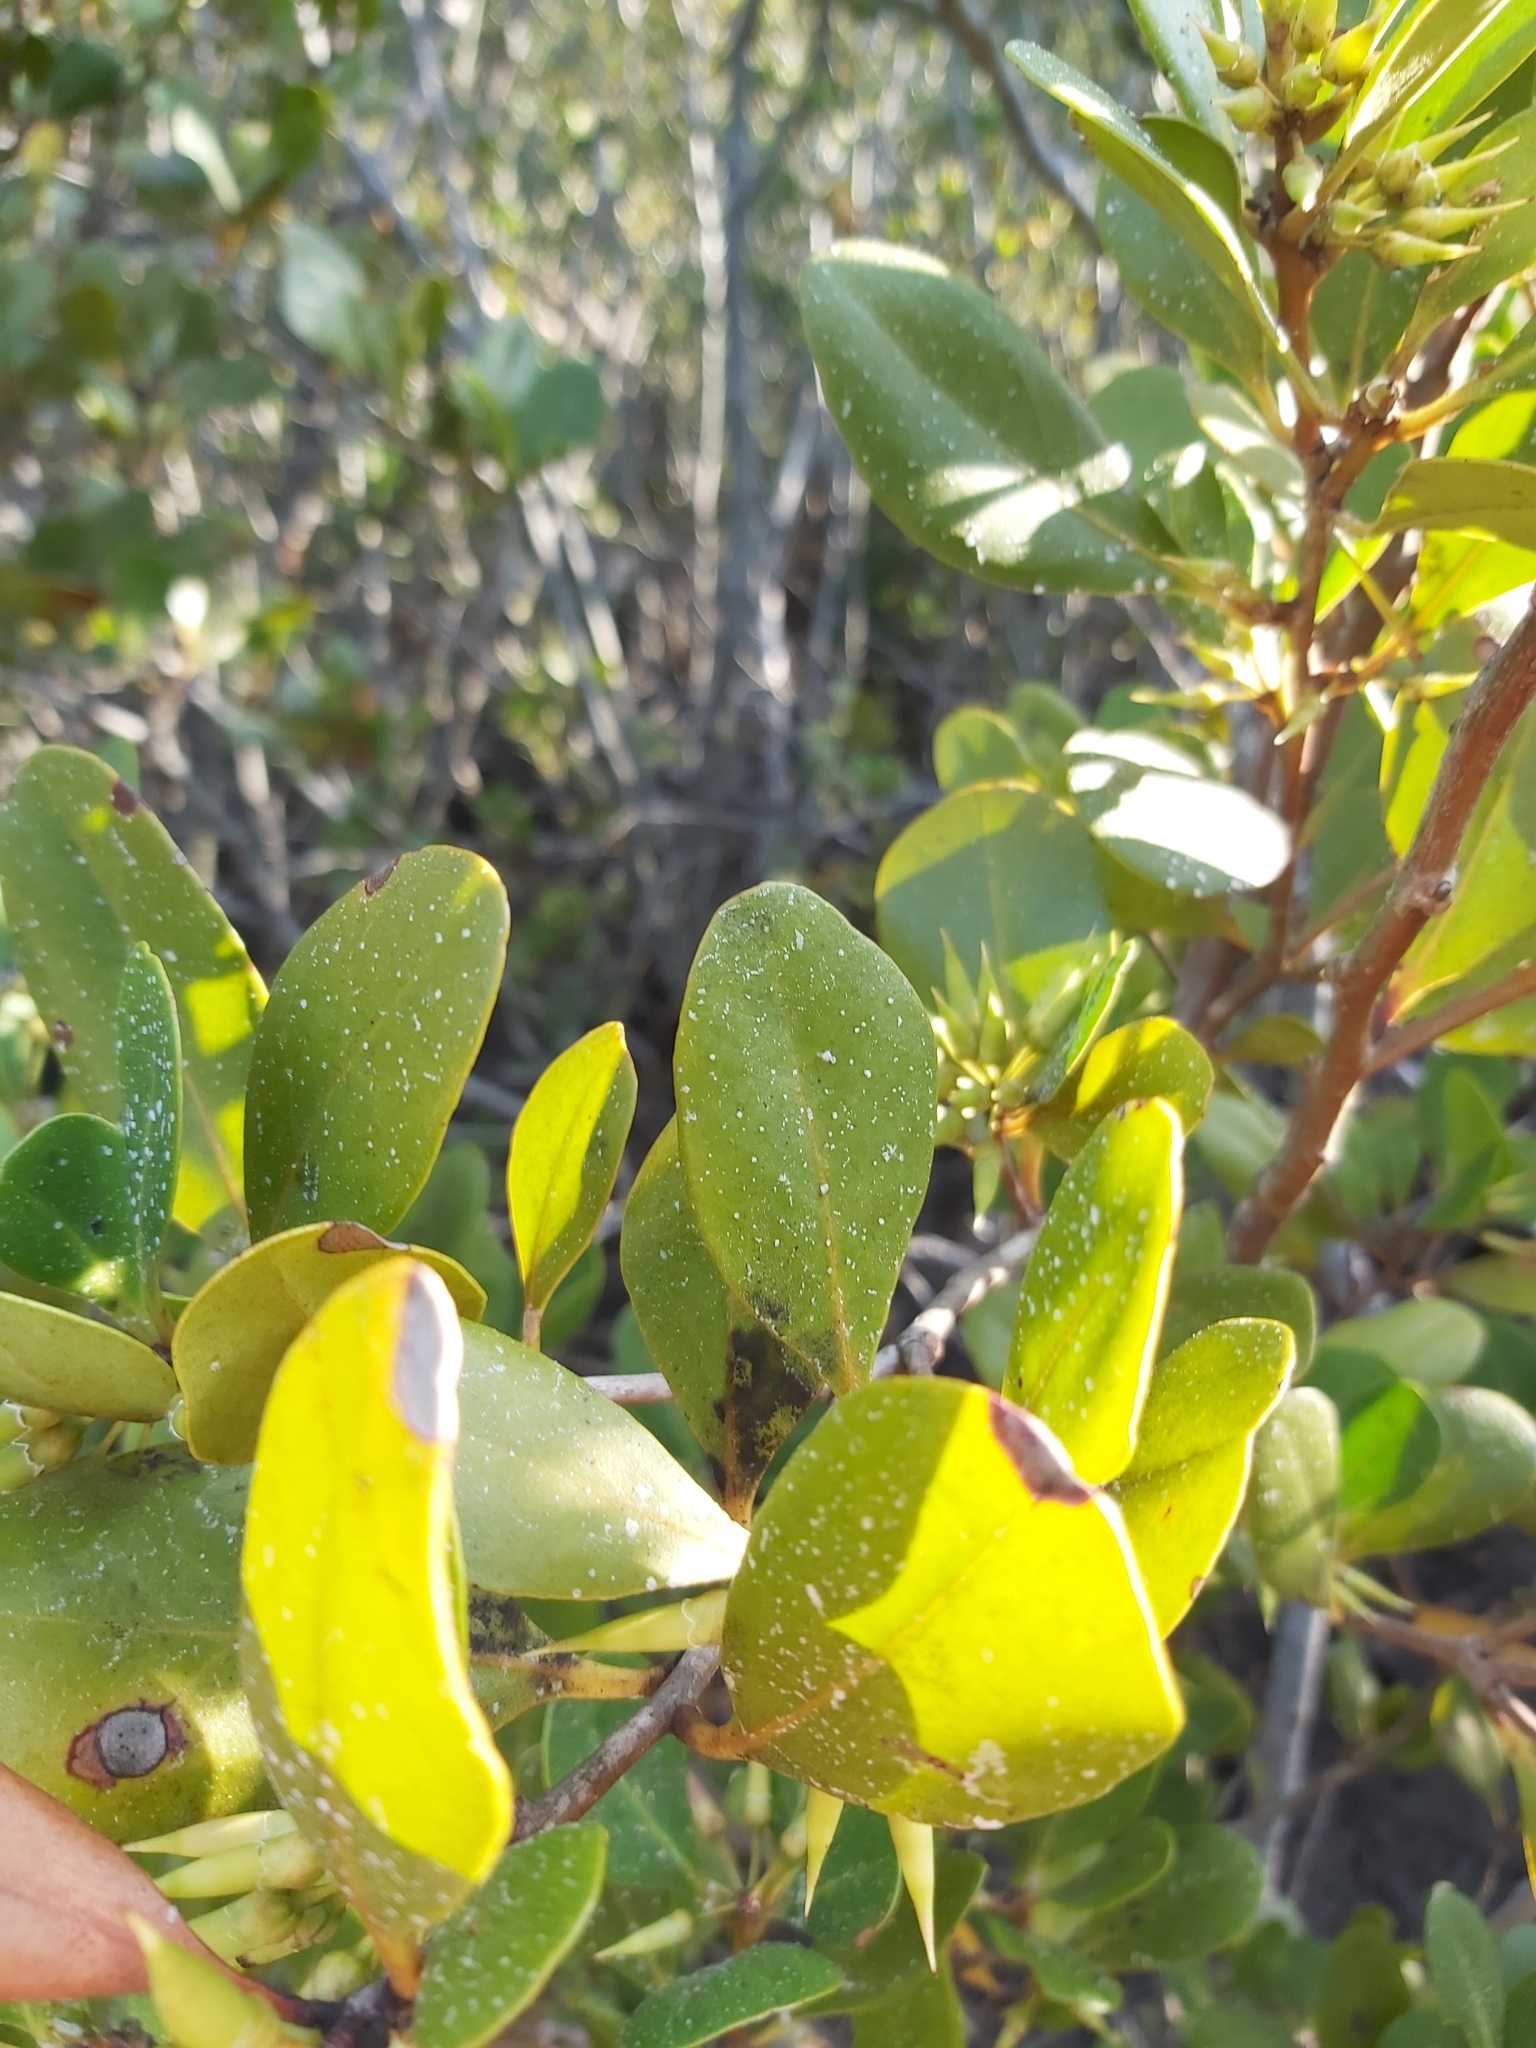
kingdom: Plantae
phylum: Tracheophyta
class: Magnoliopsida
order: Ericales
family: Primulaceae
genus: Aegiceras
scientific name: Aegiceras corniculatum
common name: River mangrove
